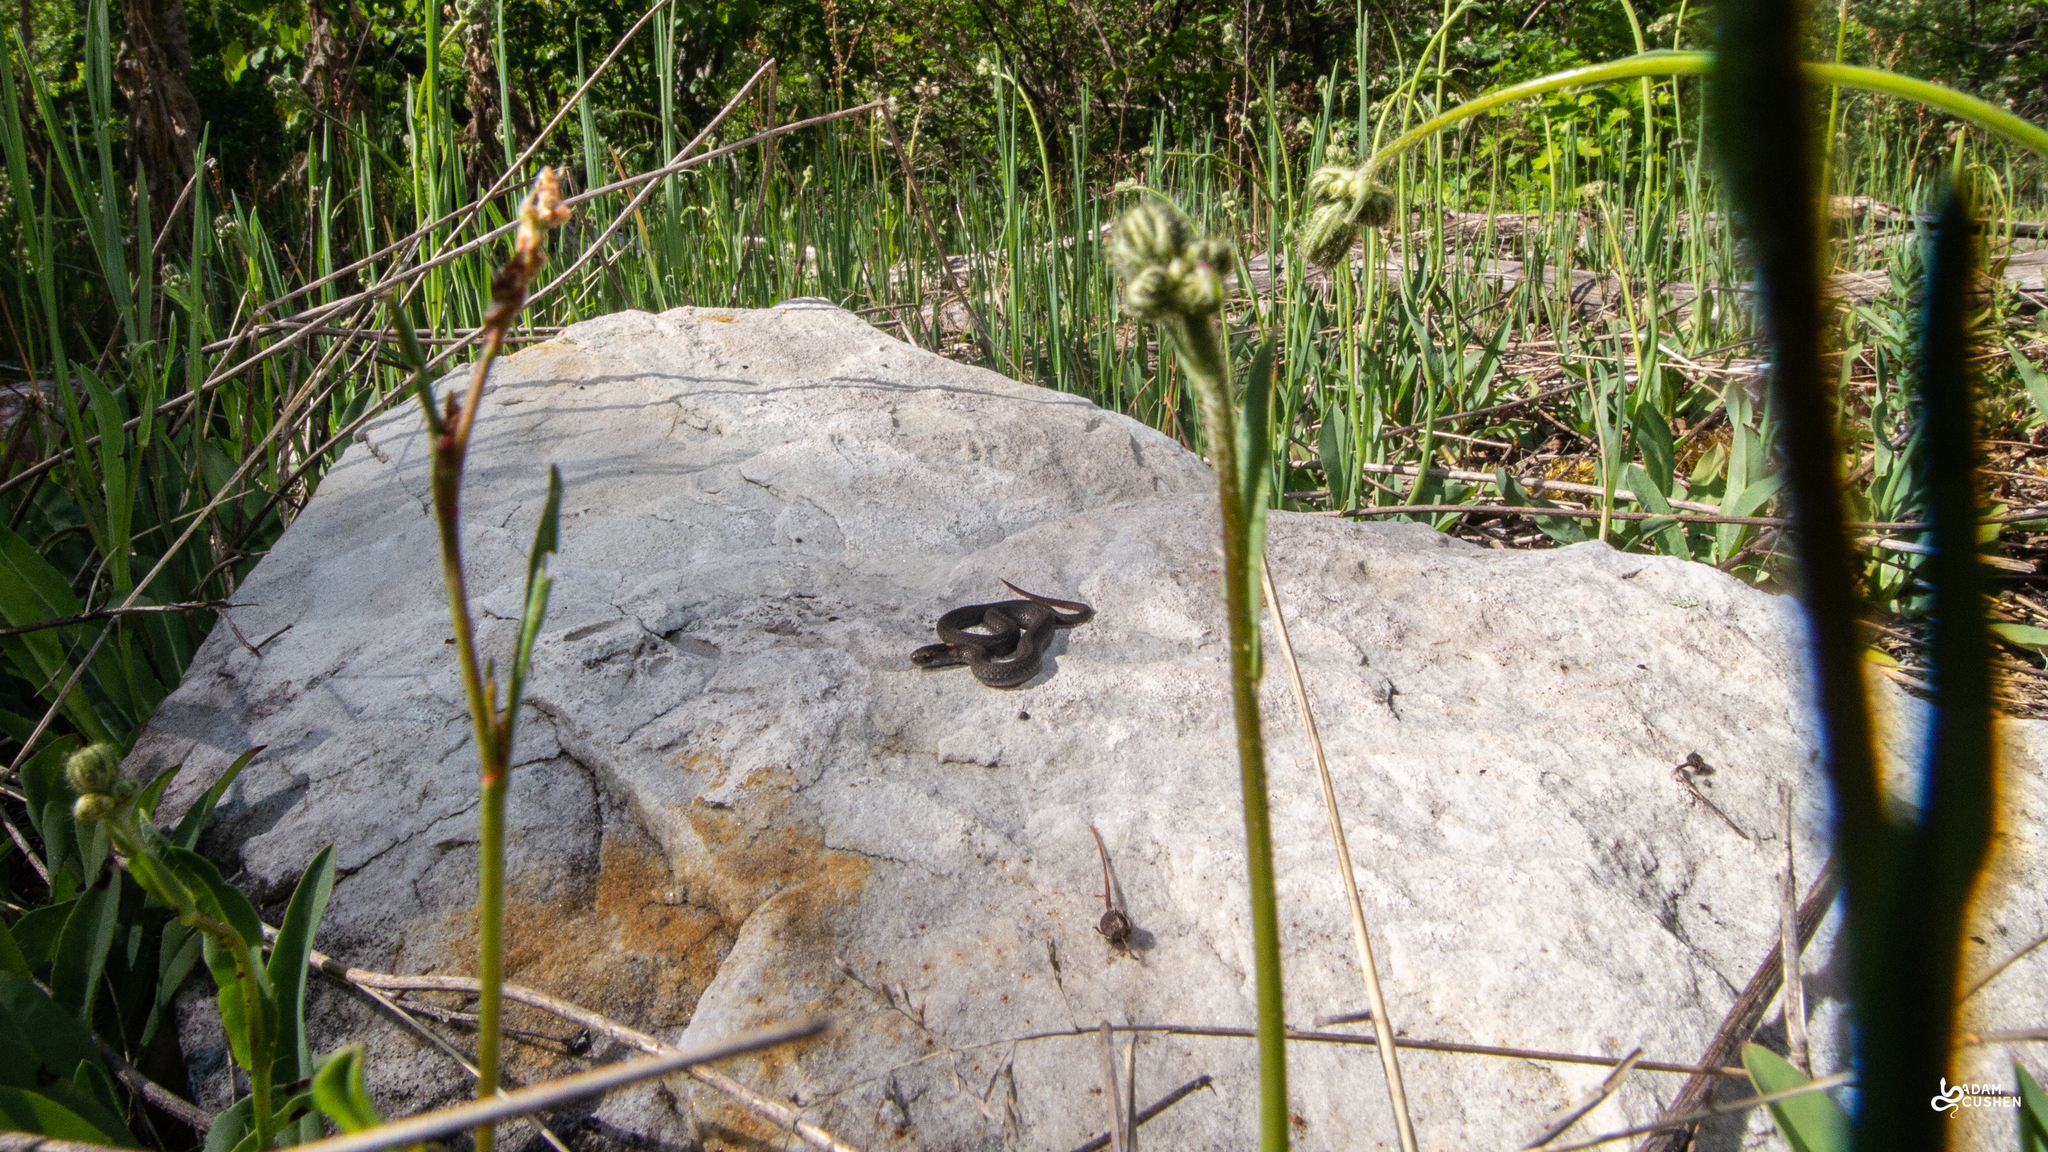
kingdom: Animalia
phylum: Chordata
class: Squamata
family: Colubridae
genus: Storeria
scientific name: Storeria occipitomaculata
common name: Redbelly snake
